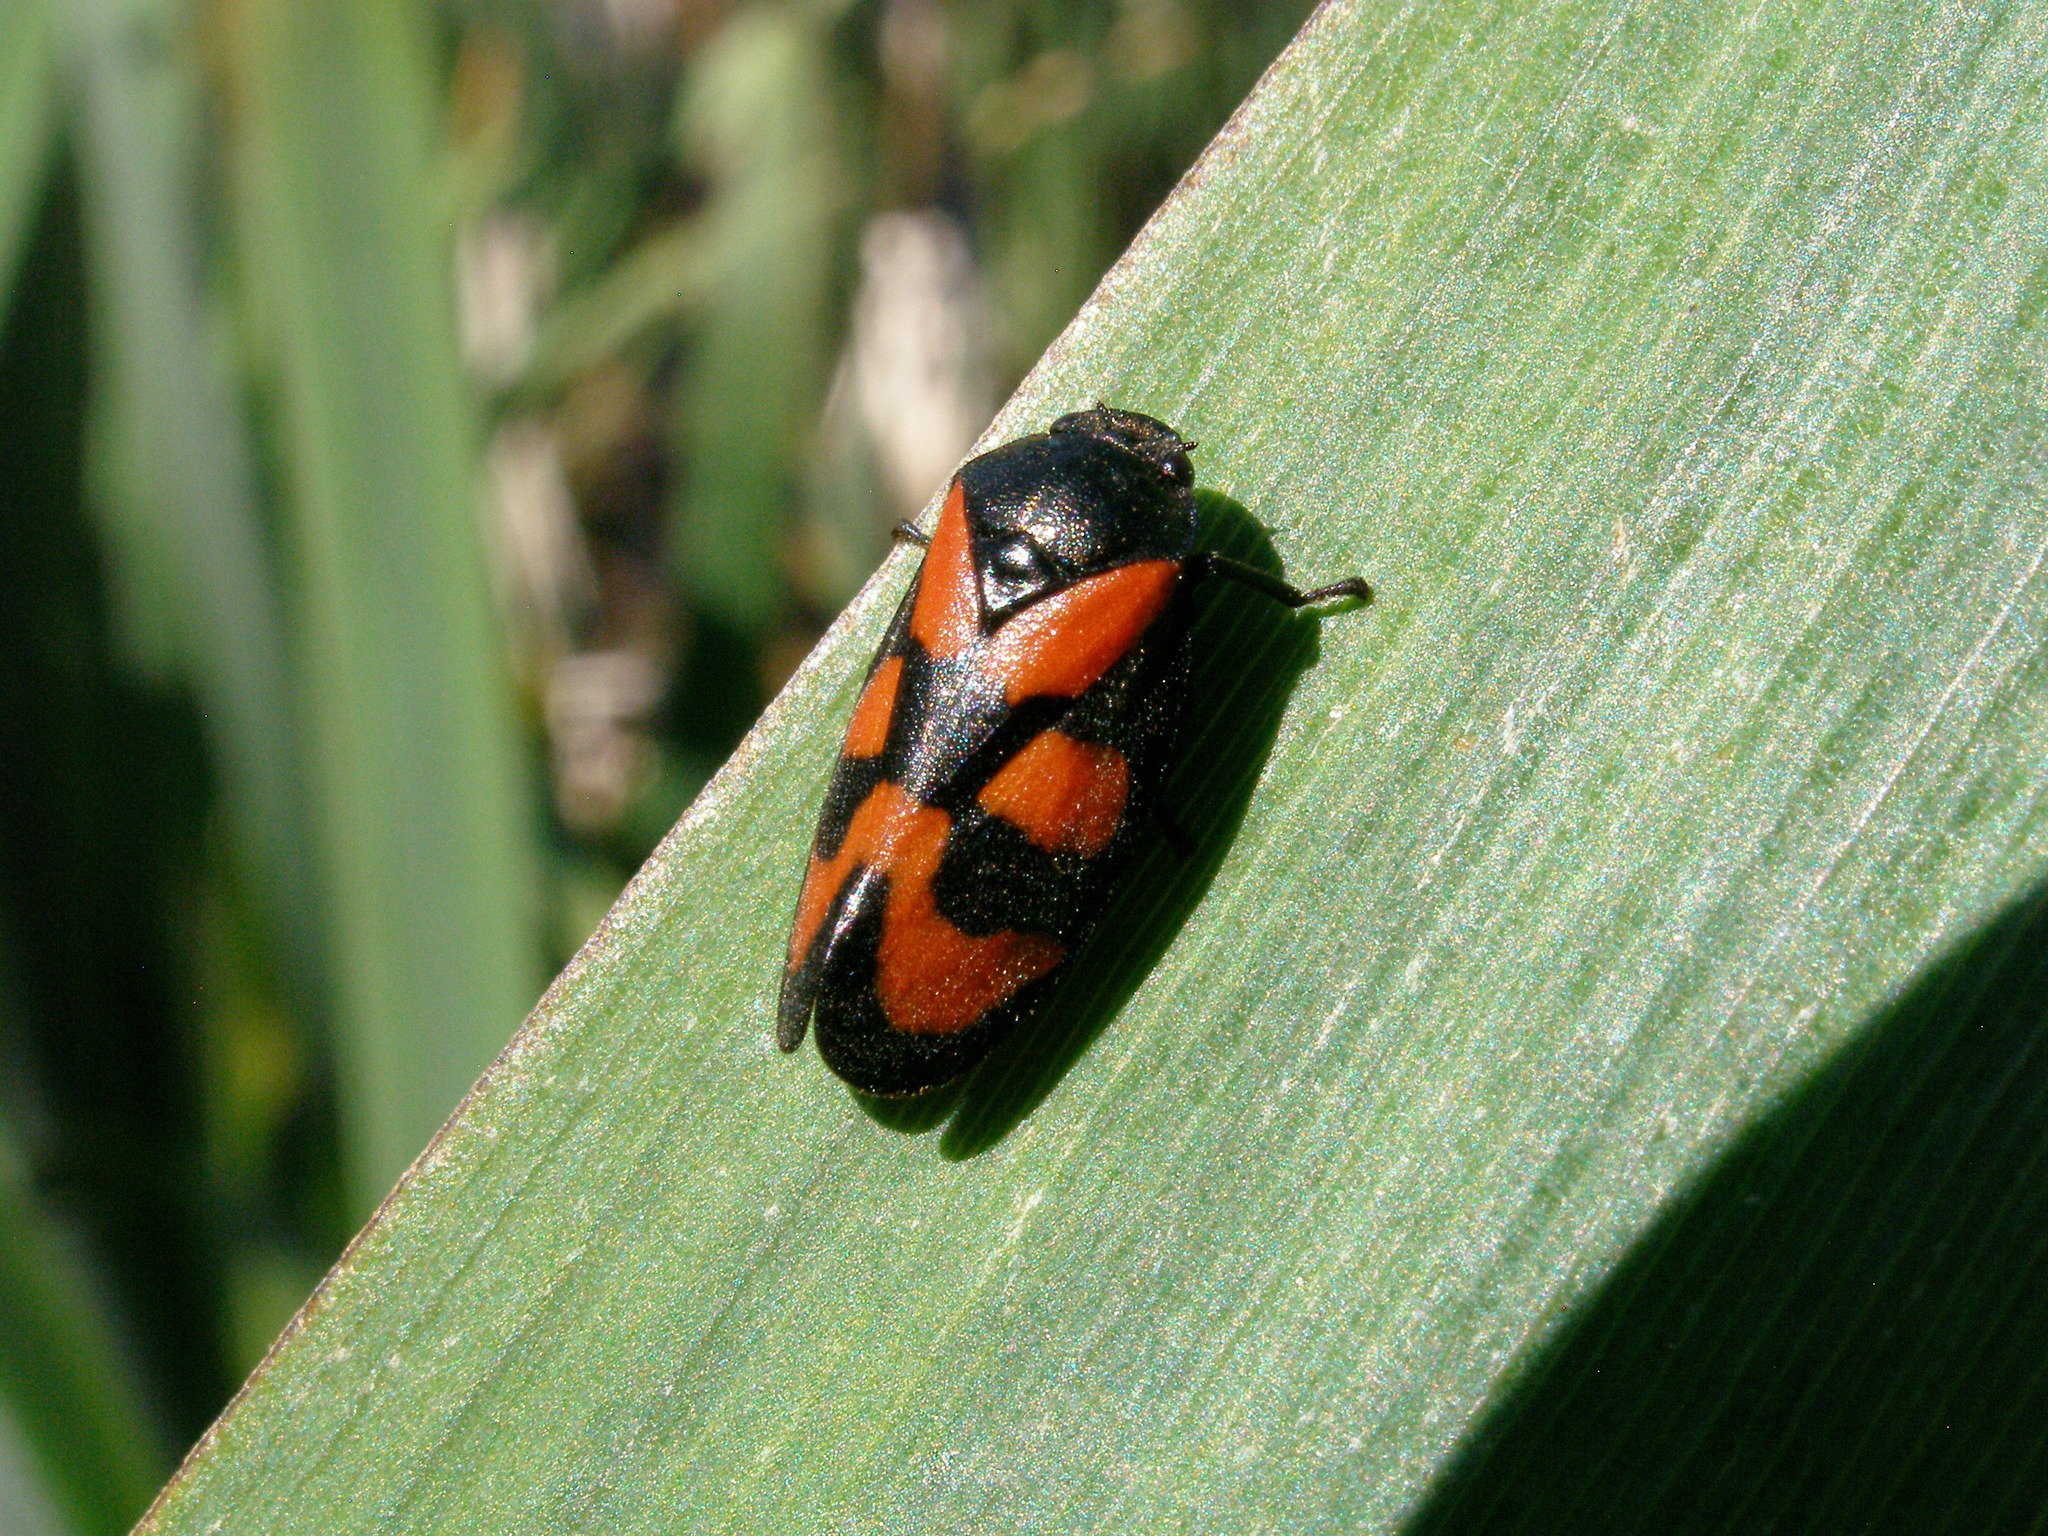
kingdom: Animalia
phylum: Arthropoda
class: Insecta
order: Hemiptera
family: Cercopidae
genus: Cercopis
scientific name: Cercopis vulnerata
